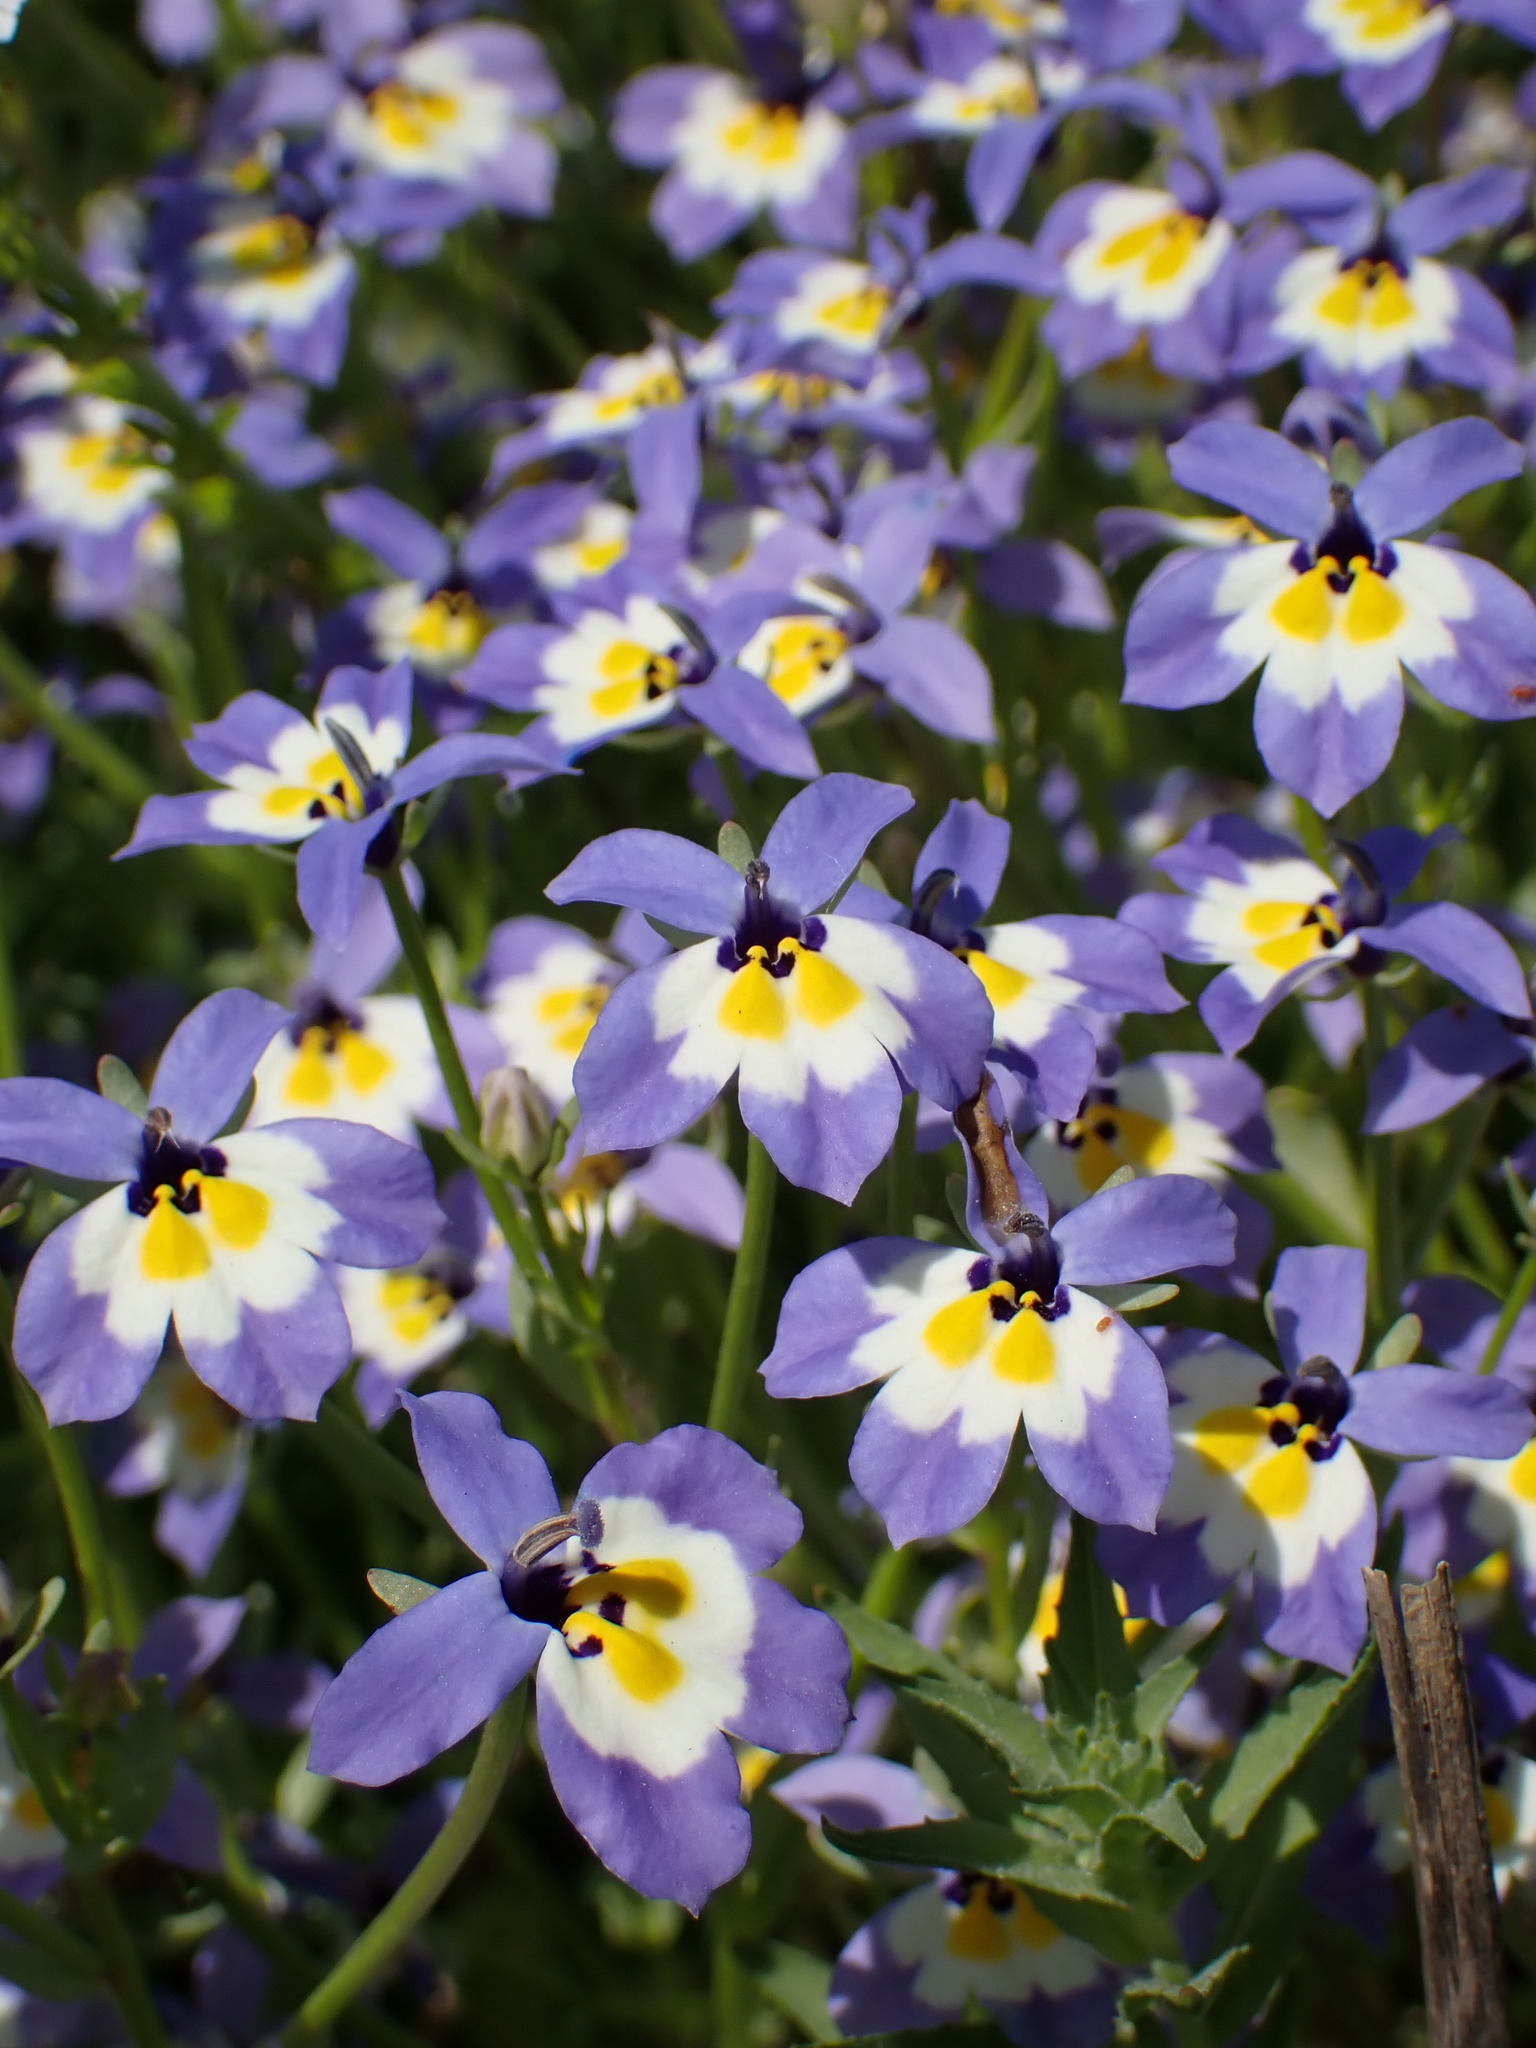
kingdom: Plantae
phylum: Tracheophyta
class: Magnoliopsida
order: Asterales
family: Campanulaceae
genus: Downingia
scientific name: Downingia pulchella
